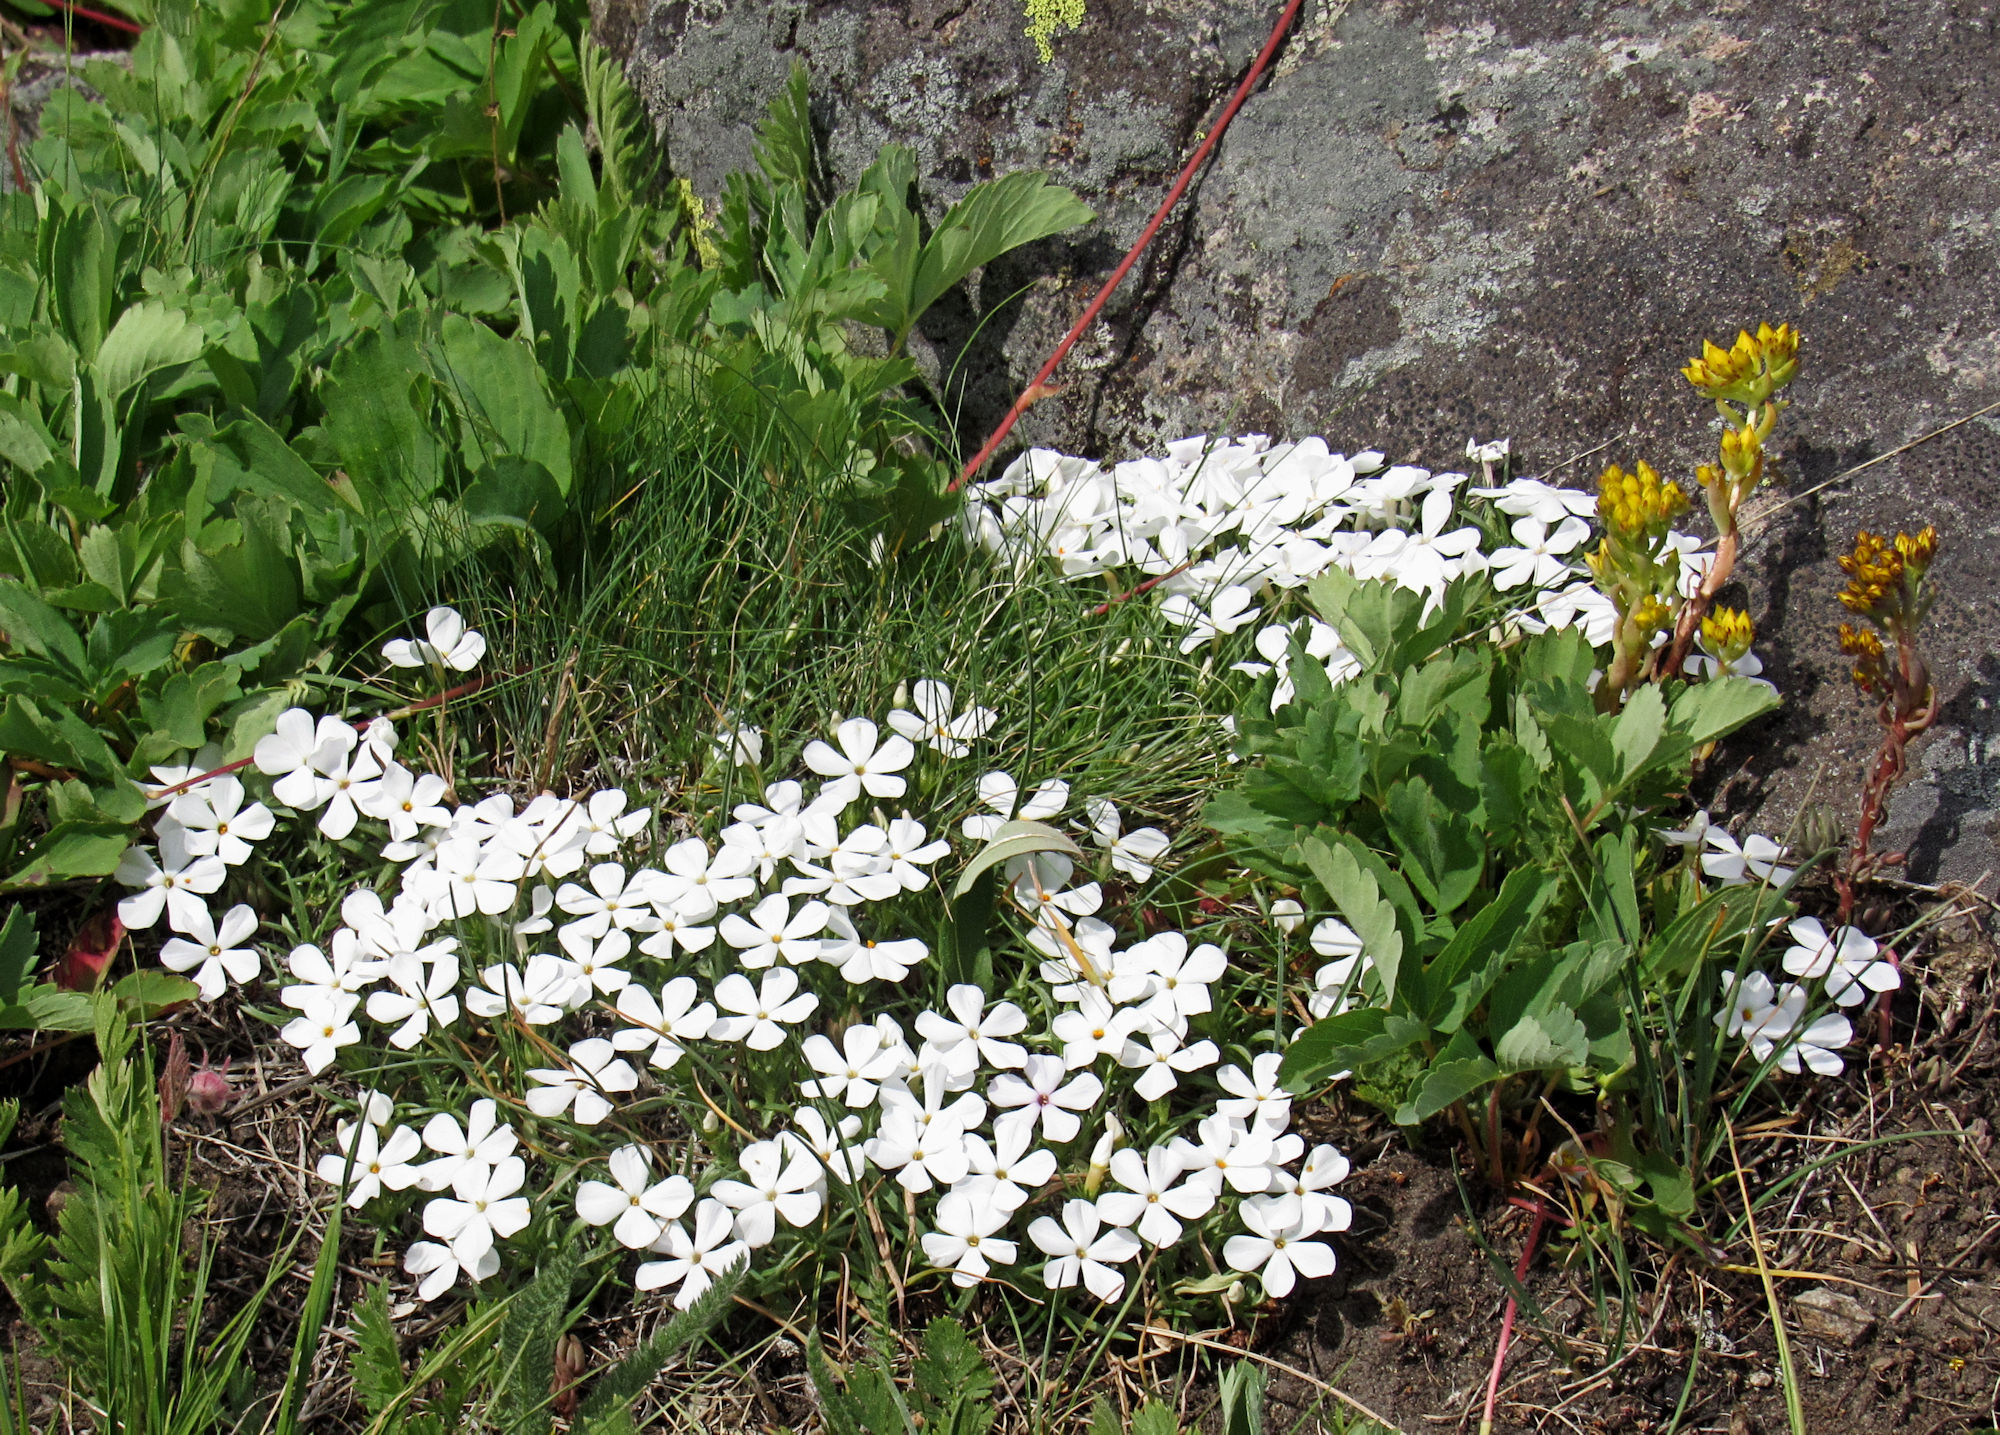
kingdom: Plantae
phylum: Tracheophyta
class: Magnoliopsida
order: Ericales
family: Polemoniaceae
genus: Phlox
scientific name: Phlox multiflora
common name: Rocky mountain phlox
